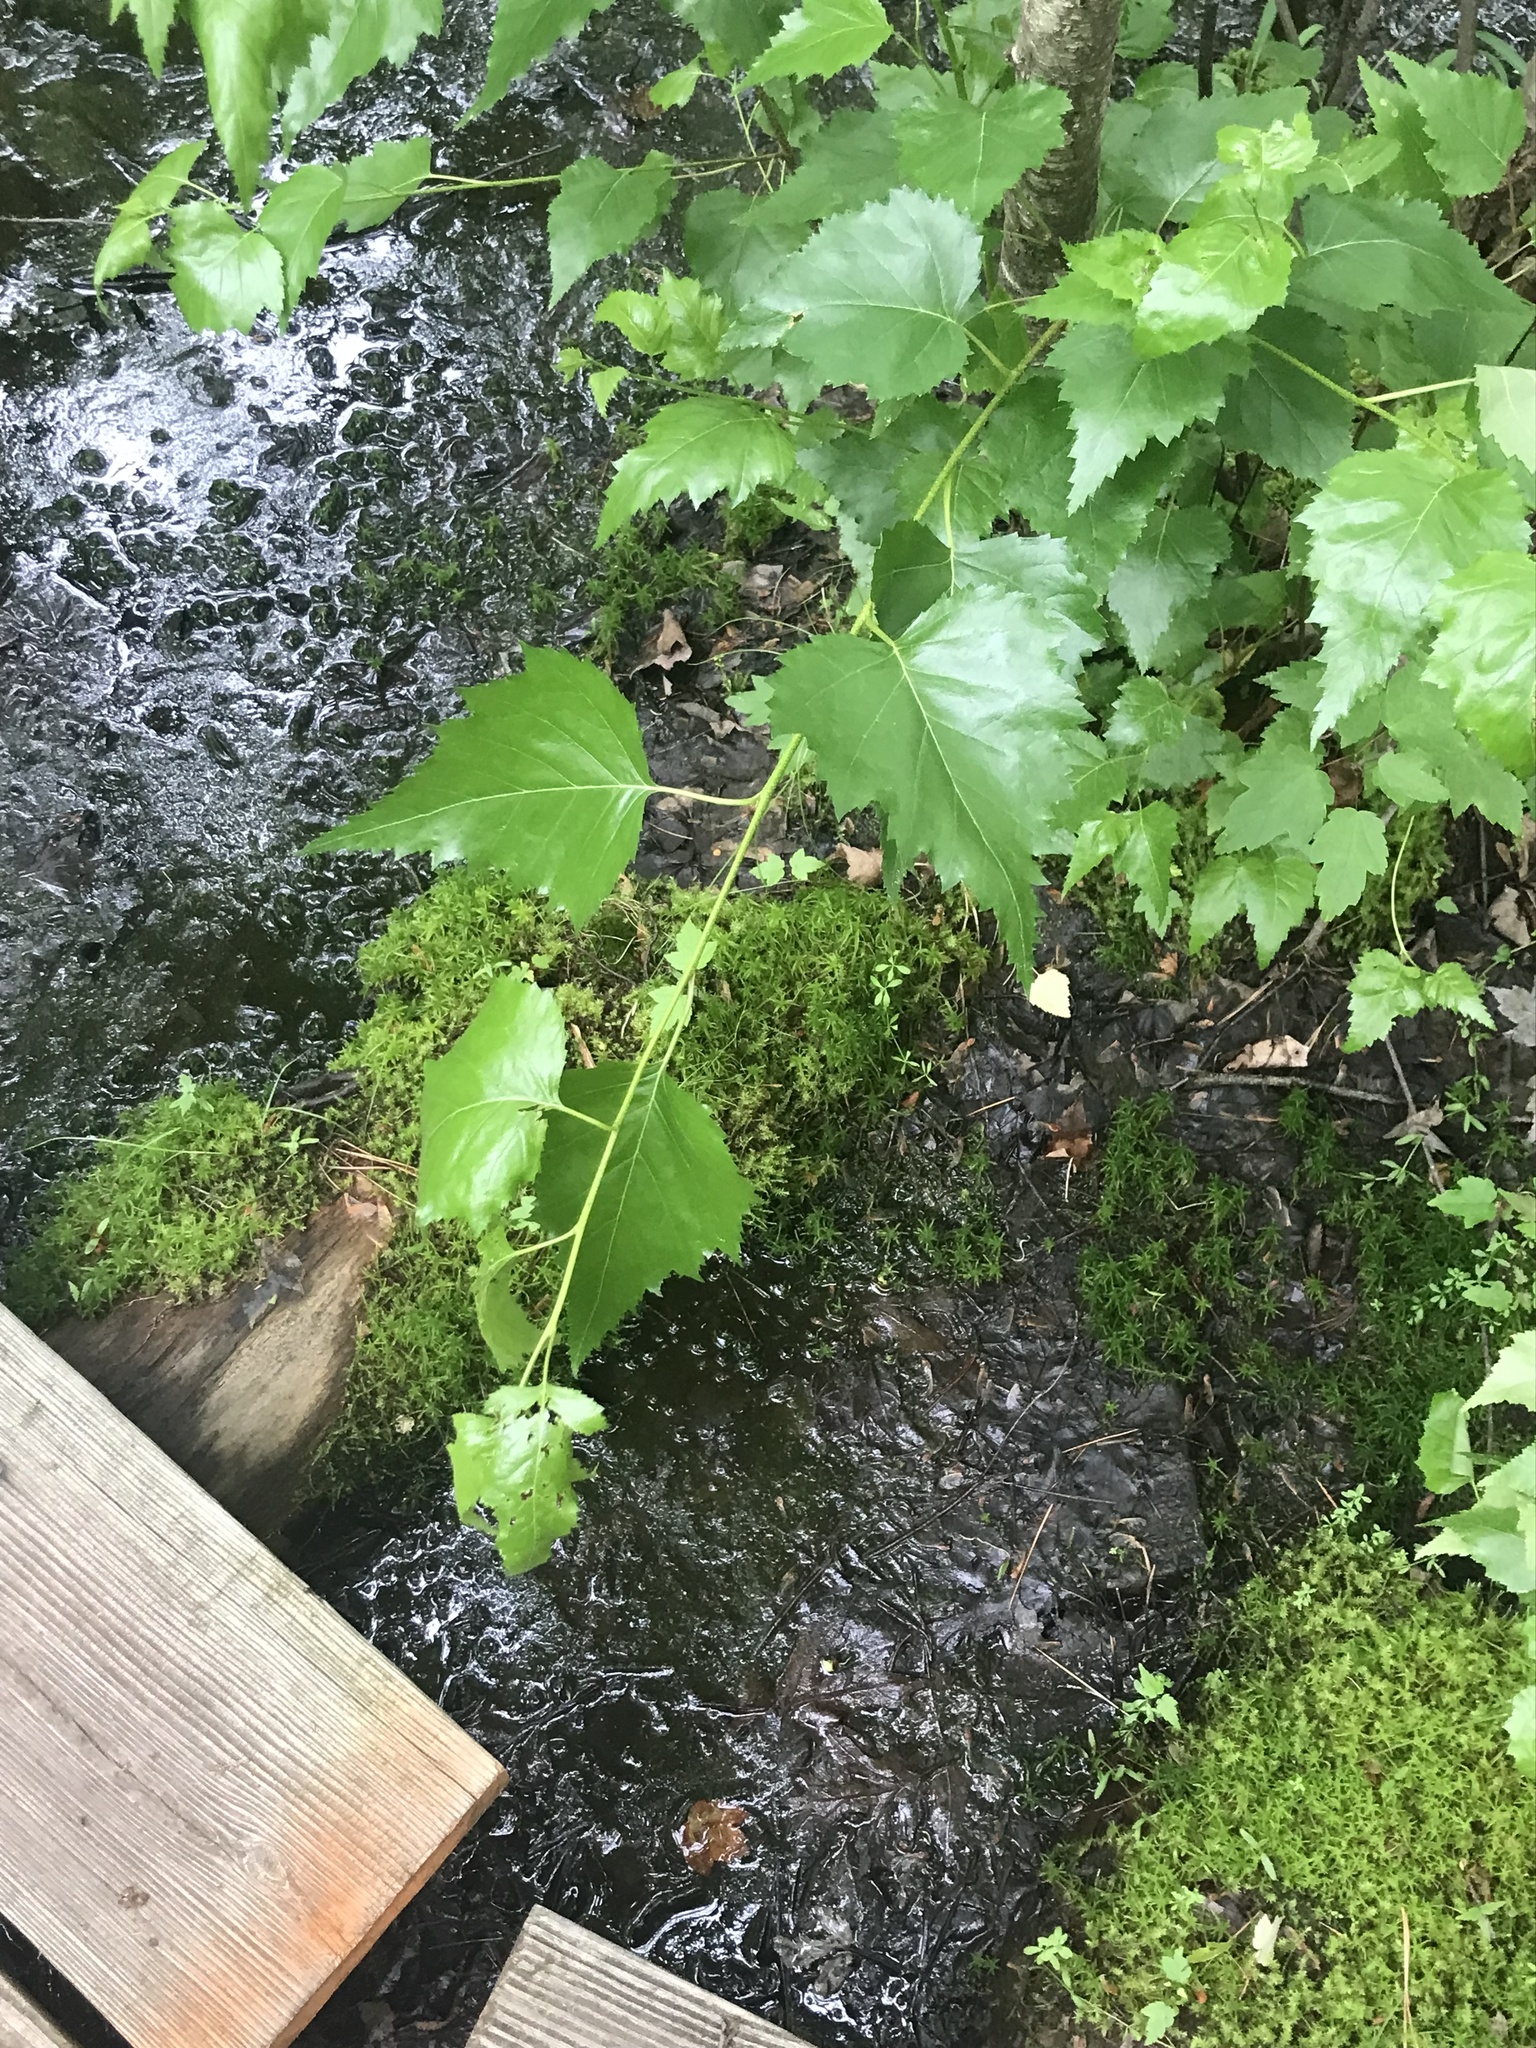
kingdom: Plantae
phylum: Tracheophyta
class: Magnoliopsida
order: Fagales
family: Betulaceae
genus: Betula
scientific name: Betula populifolia
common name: Fire birch
